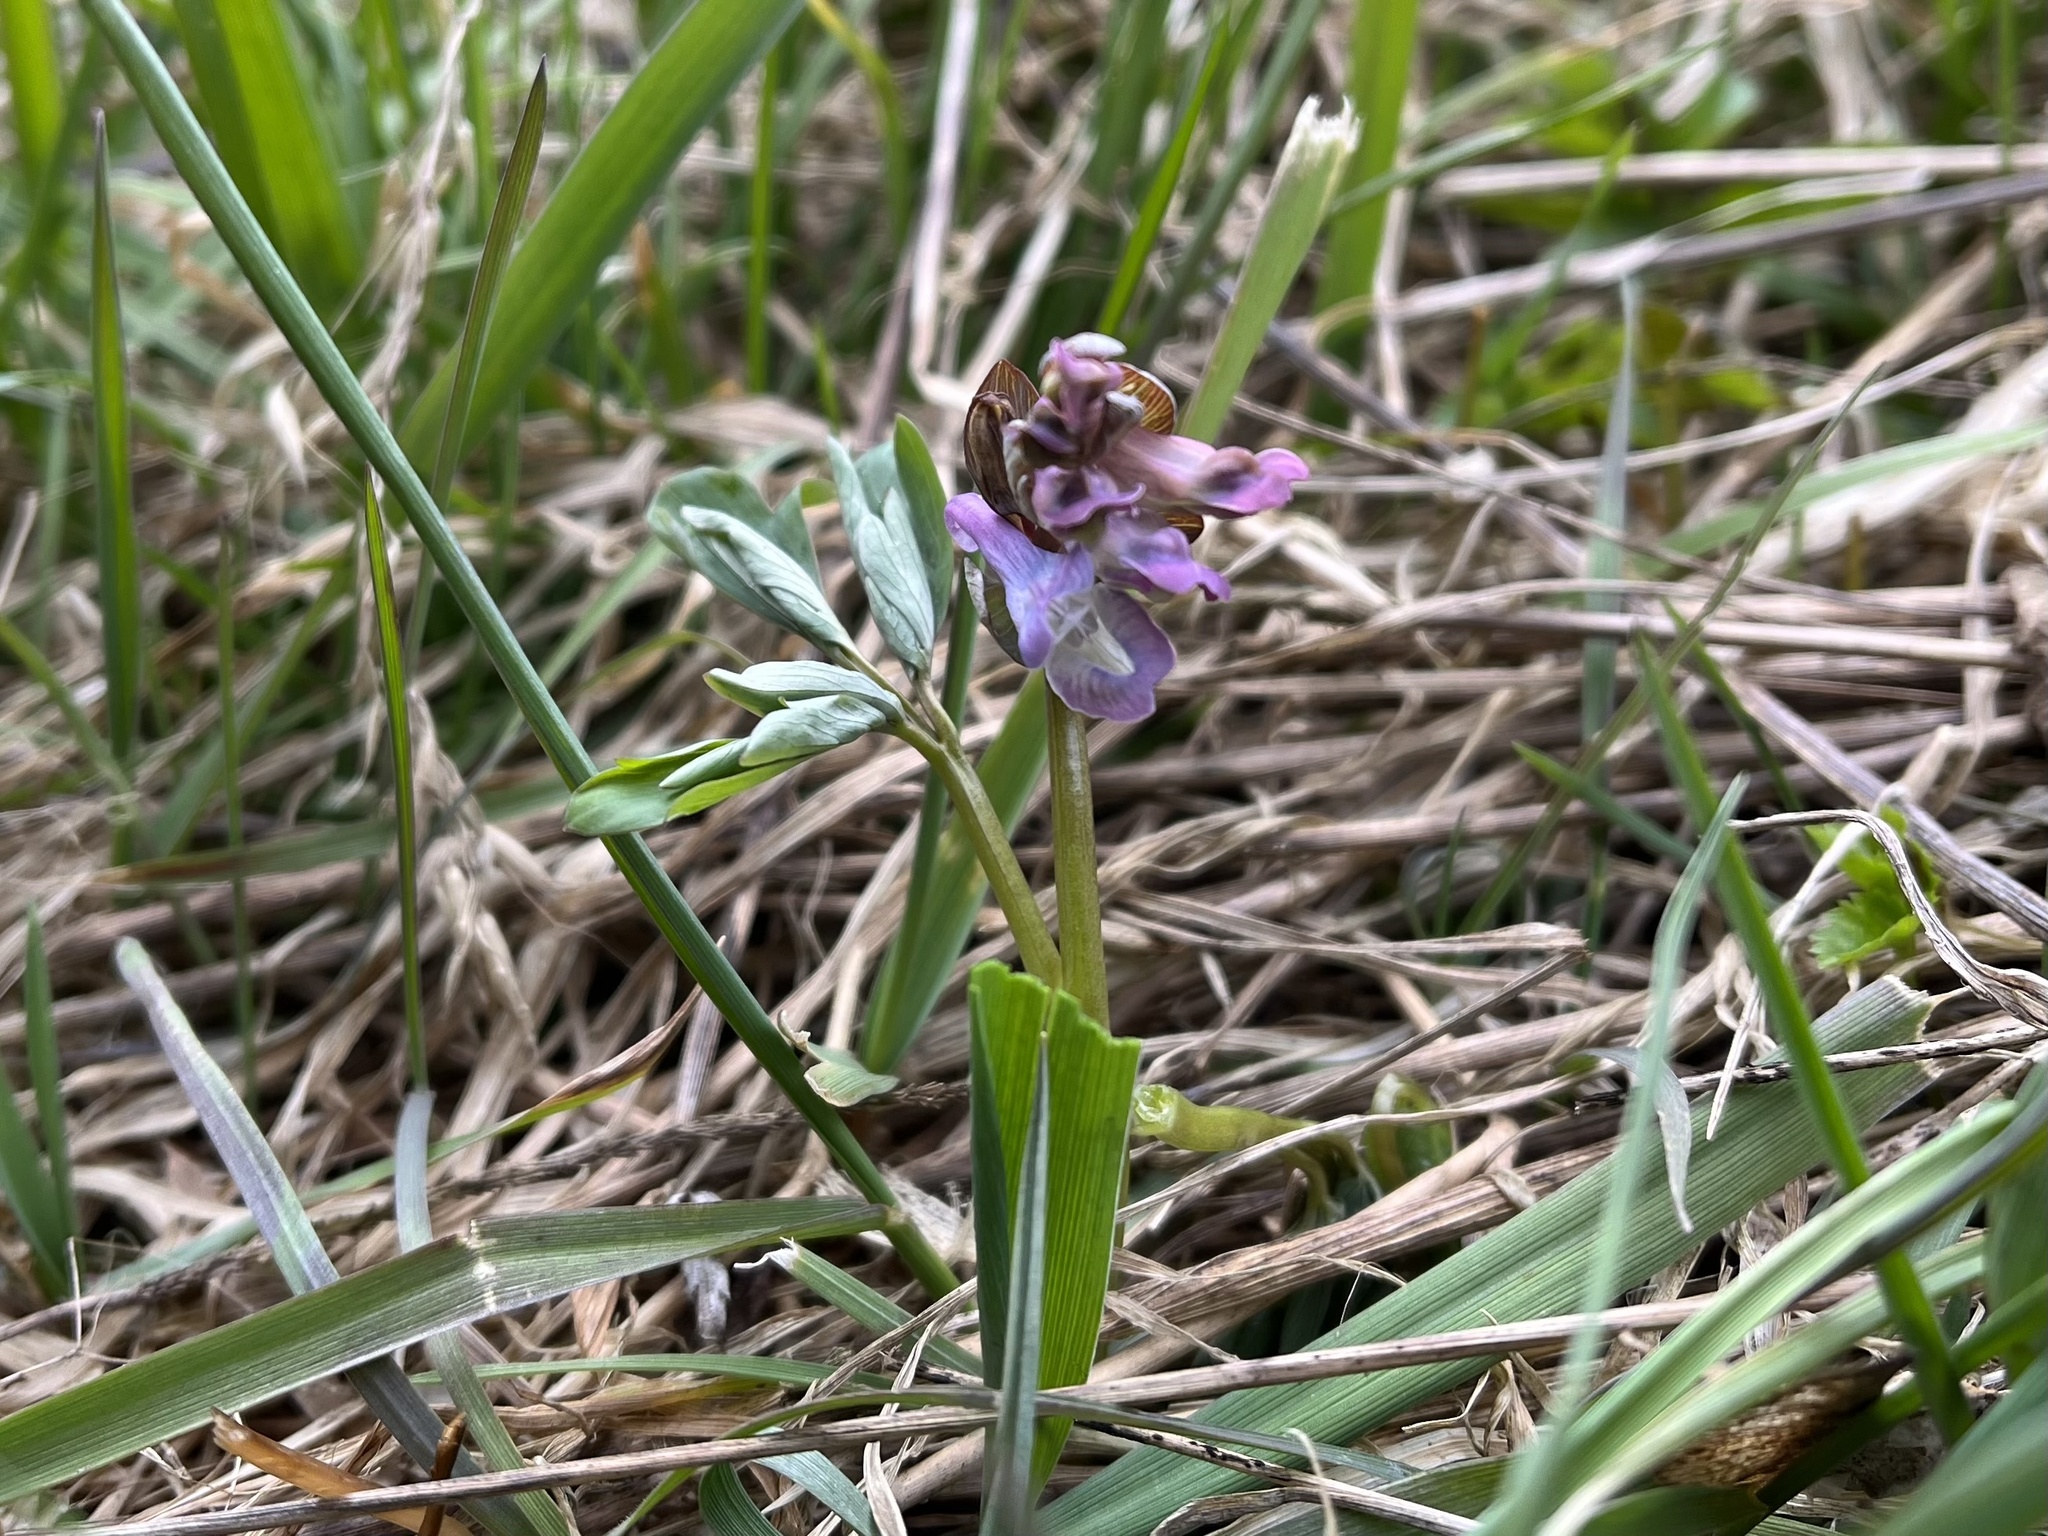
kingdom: Plantae
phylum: Tracheophyta
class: Magnoliopsida
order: Ranunculales
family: Papaveraceae
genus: Corydalis
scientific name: Corydalis cava
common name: Hollowroot
